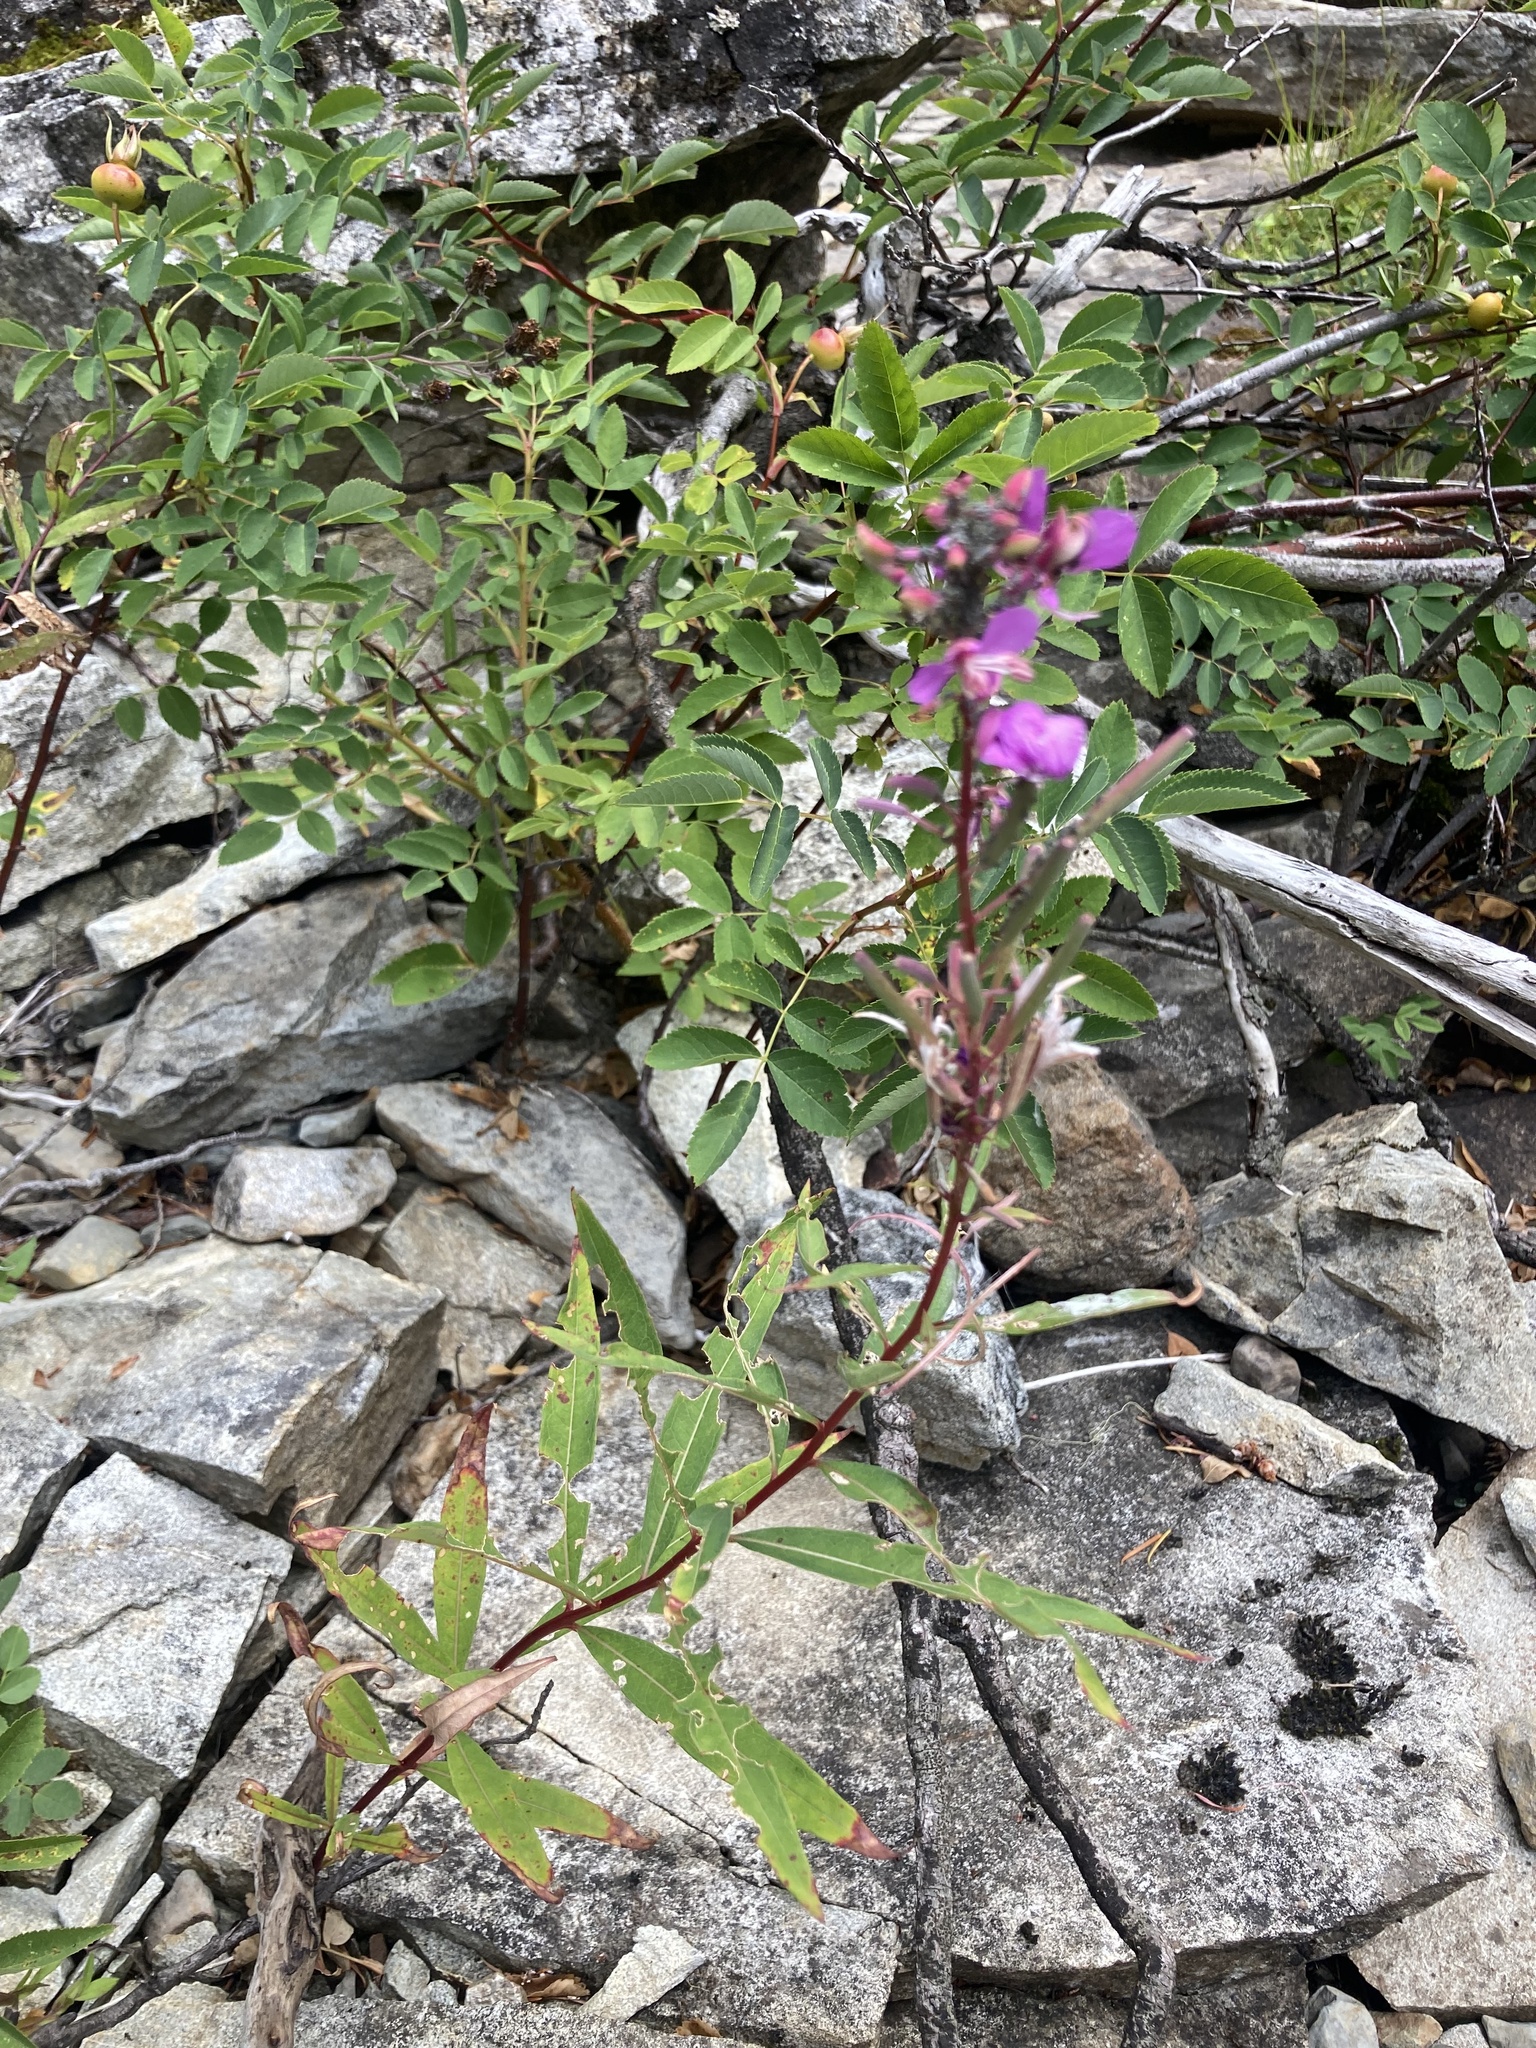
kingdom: Plantae
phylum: Tracheophyta
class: Magnoliopsida
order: Myrtales
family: Onagraceae
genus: Chamaenerion
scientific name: Chamaenerion angustifolium
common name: Fireweed
